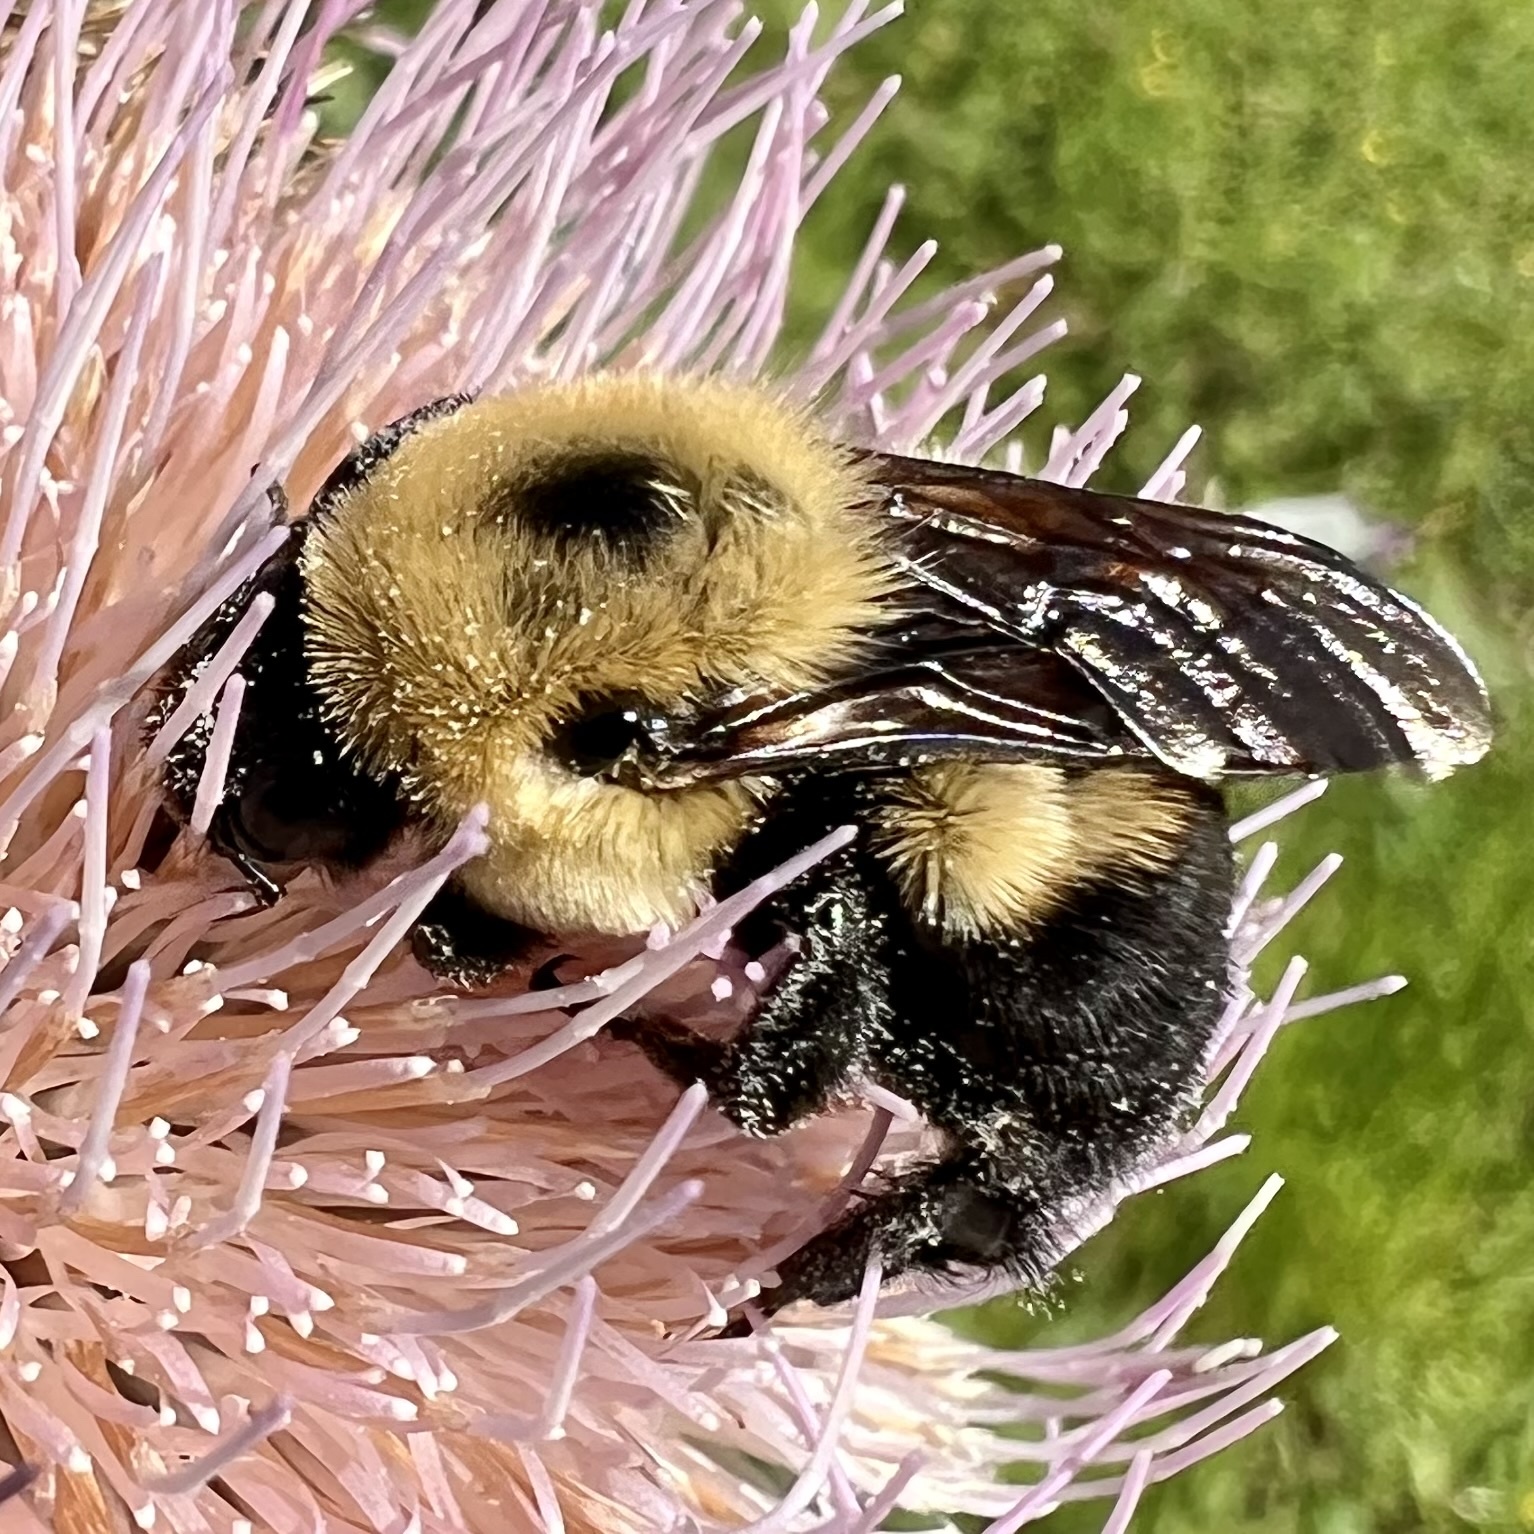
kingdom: Animalia
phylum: Arthropoda
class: Insecta
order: Hymenoptera
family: Apidae
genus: Bombus
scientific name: Bombus griseocollis
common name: Brown-belted bumble bee
